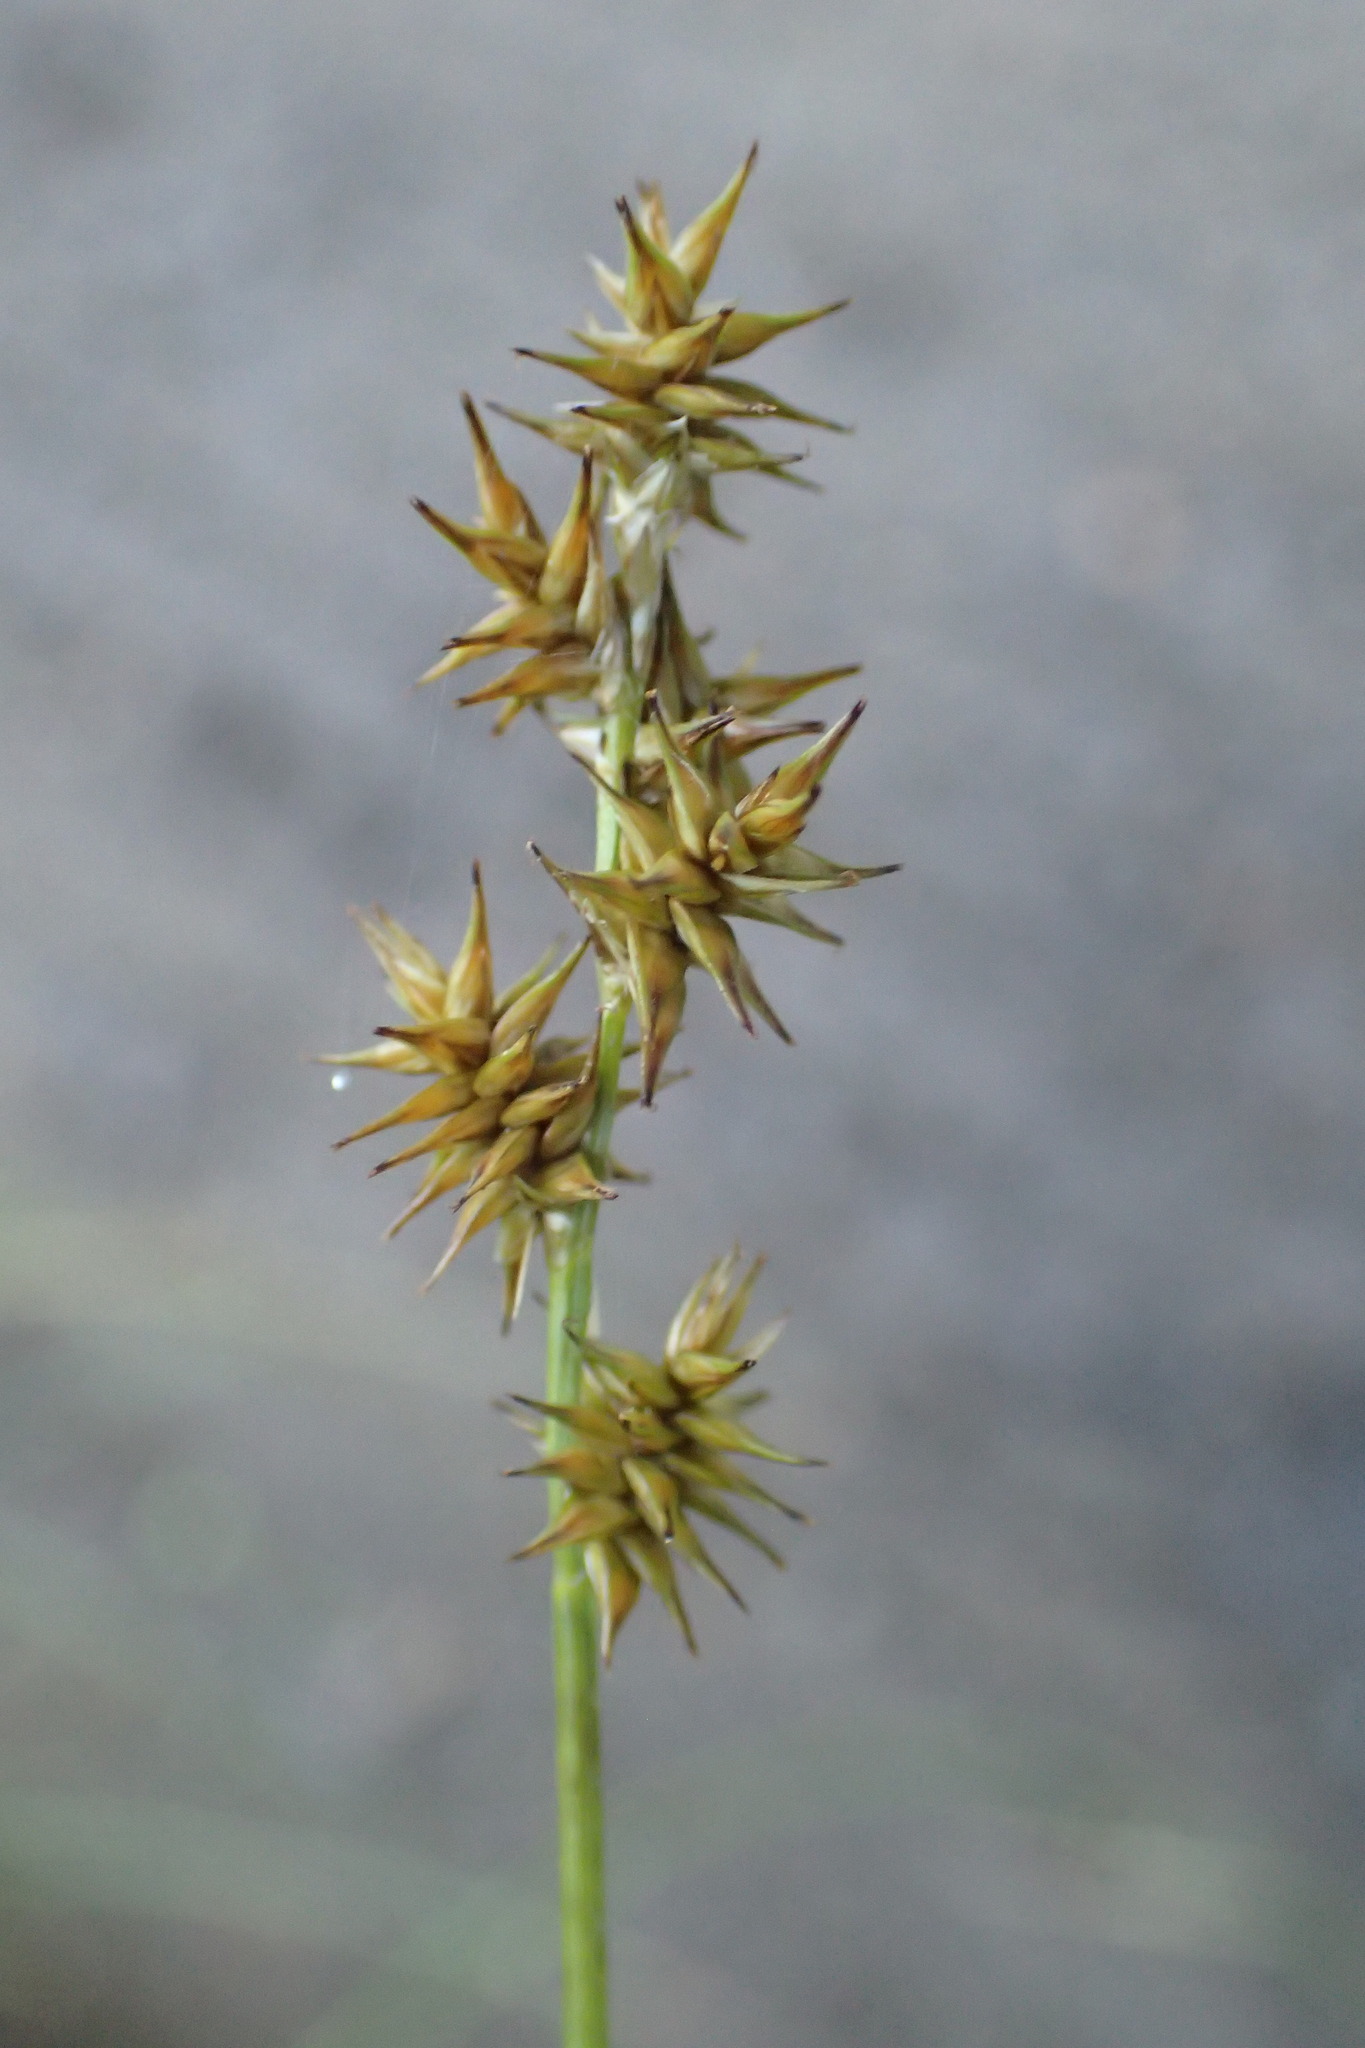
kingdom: Plantae
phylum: Tracheophyta
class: Liliopsida
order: Poales
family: Cyperaceae
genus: Carex
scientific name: Carex echinata
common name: Star sedge
